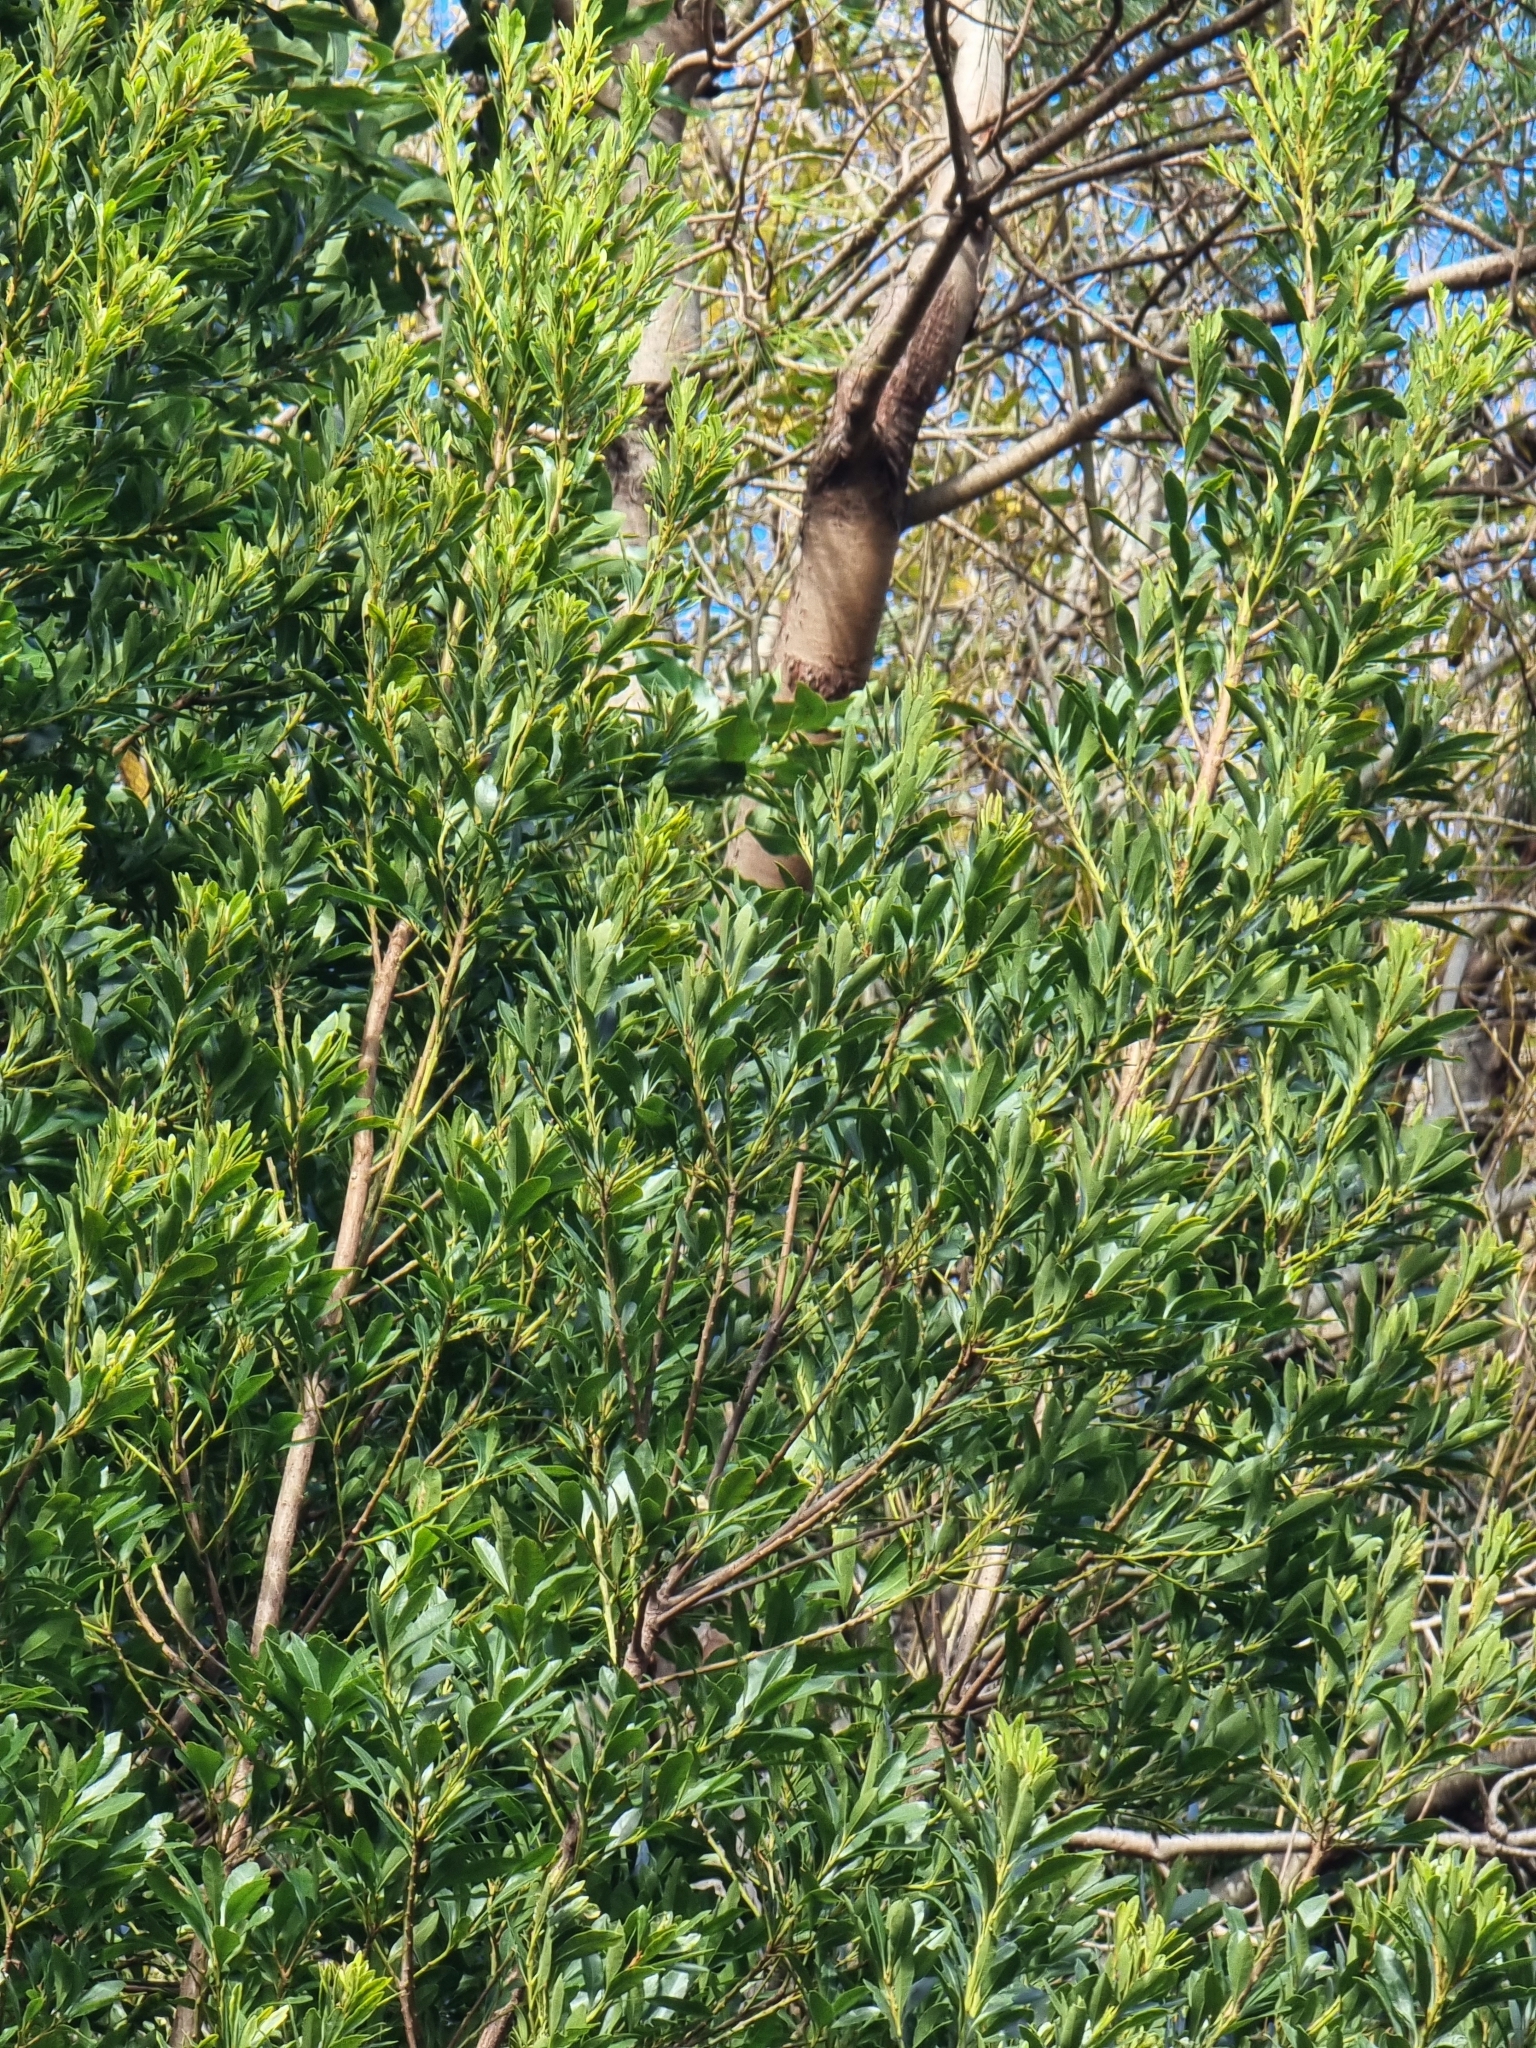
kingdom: Plantae
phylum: Tracheophyta
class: Magnoliopsida
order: Fagales
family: Myricaceae
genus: Morella
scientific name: Morella faya
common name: Firetree
